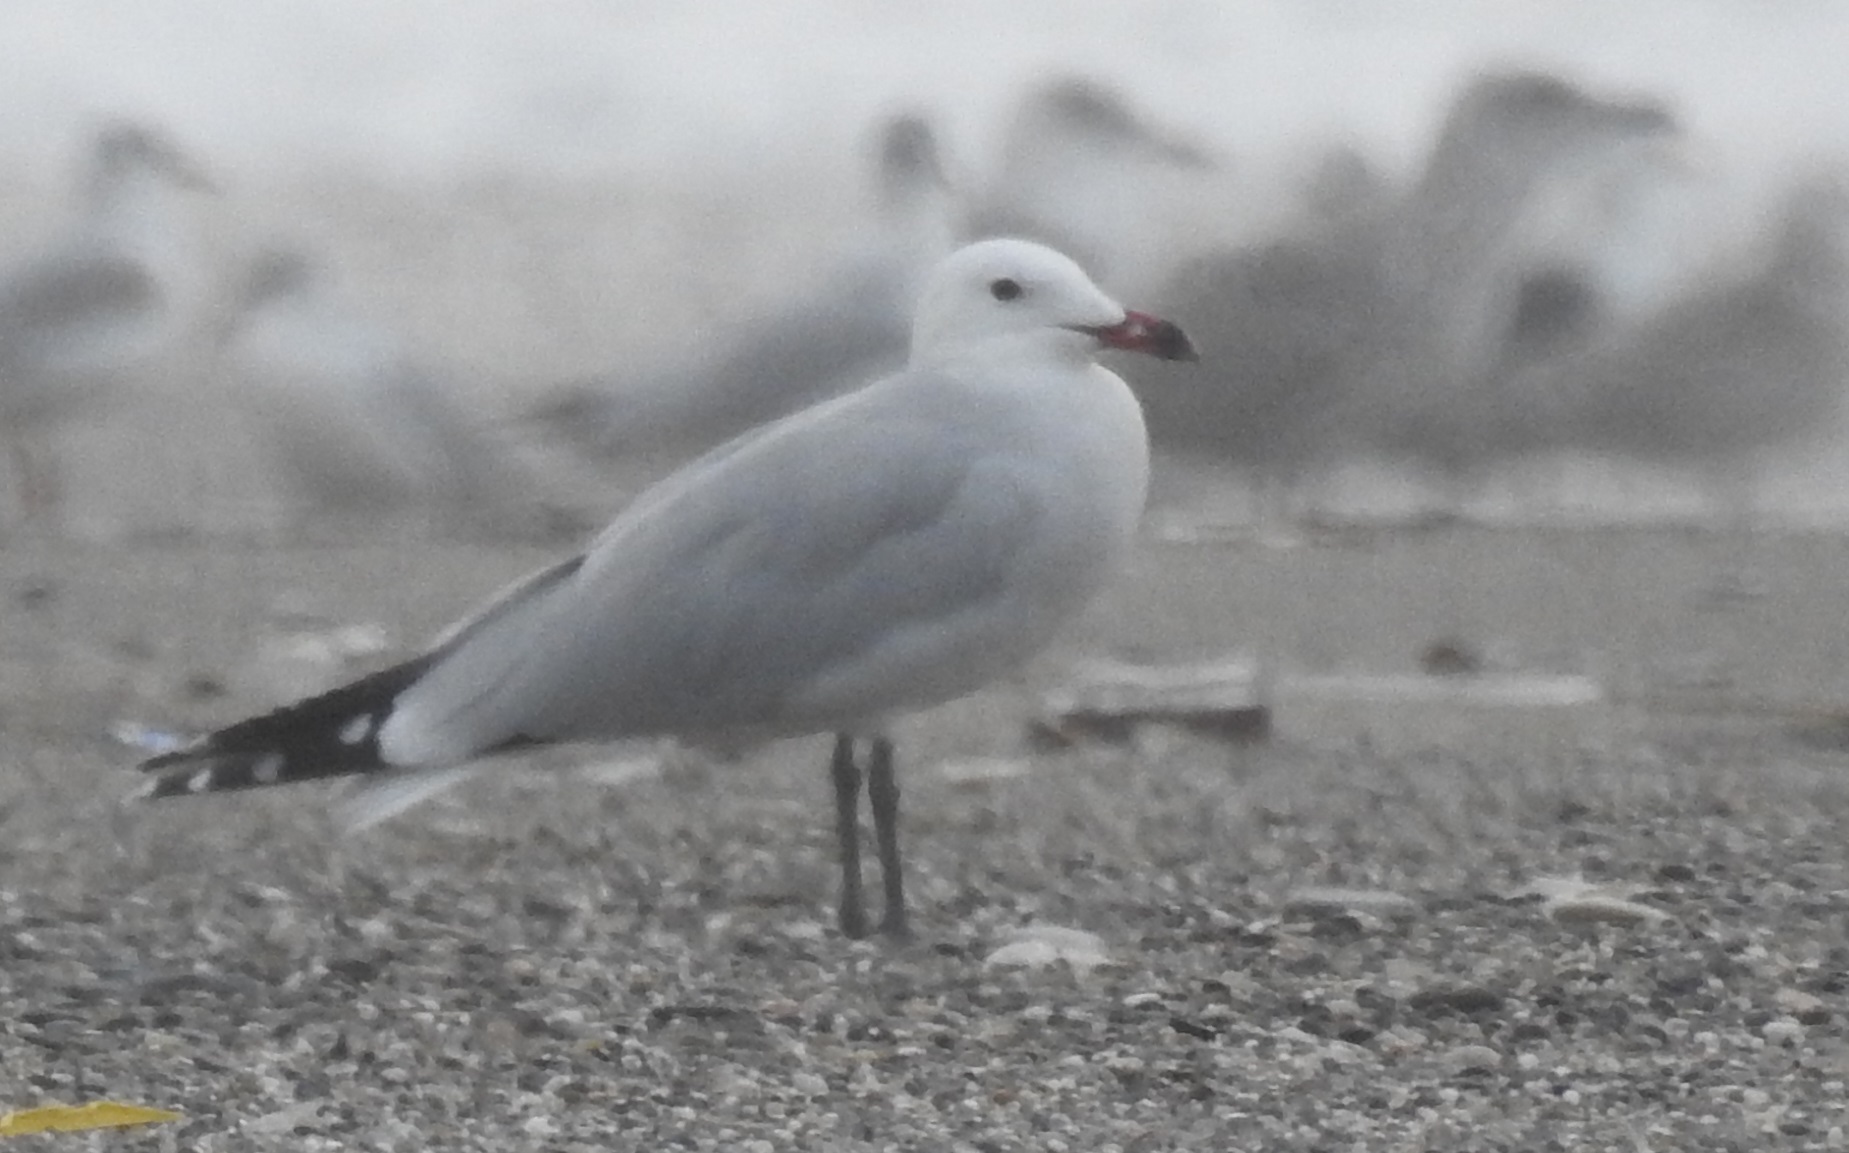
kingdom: Animalia
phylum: Chordata
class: Aves
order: Charadriiformes
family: Laridae
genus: Ichthyaetus
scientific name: Ichthyaetus audouinii
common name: Audouin's gull
